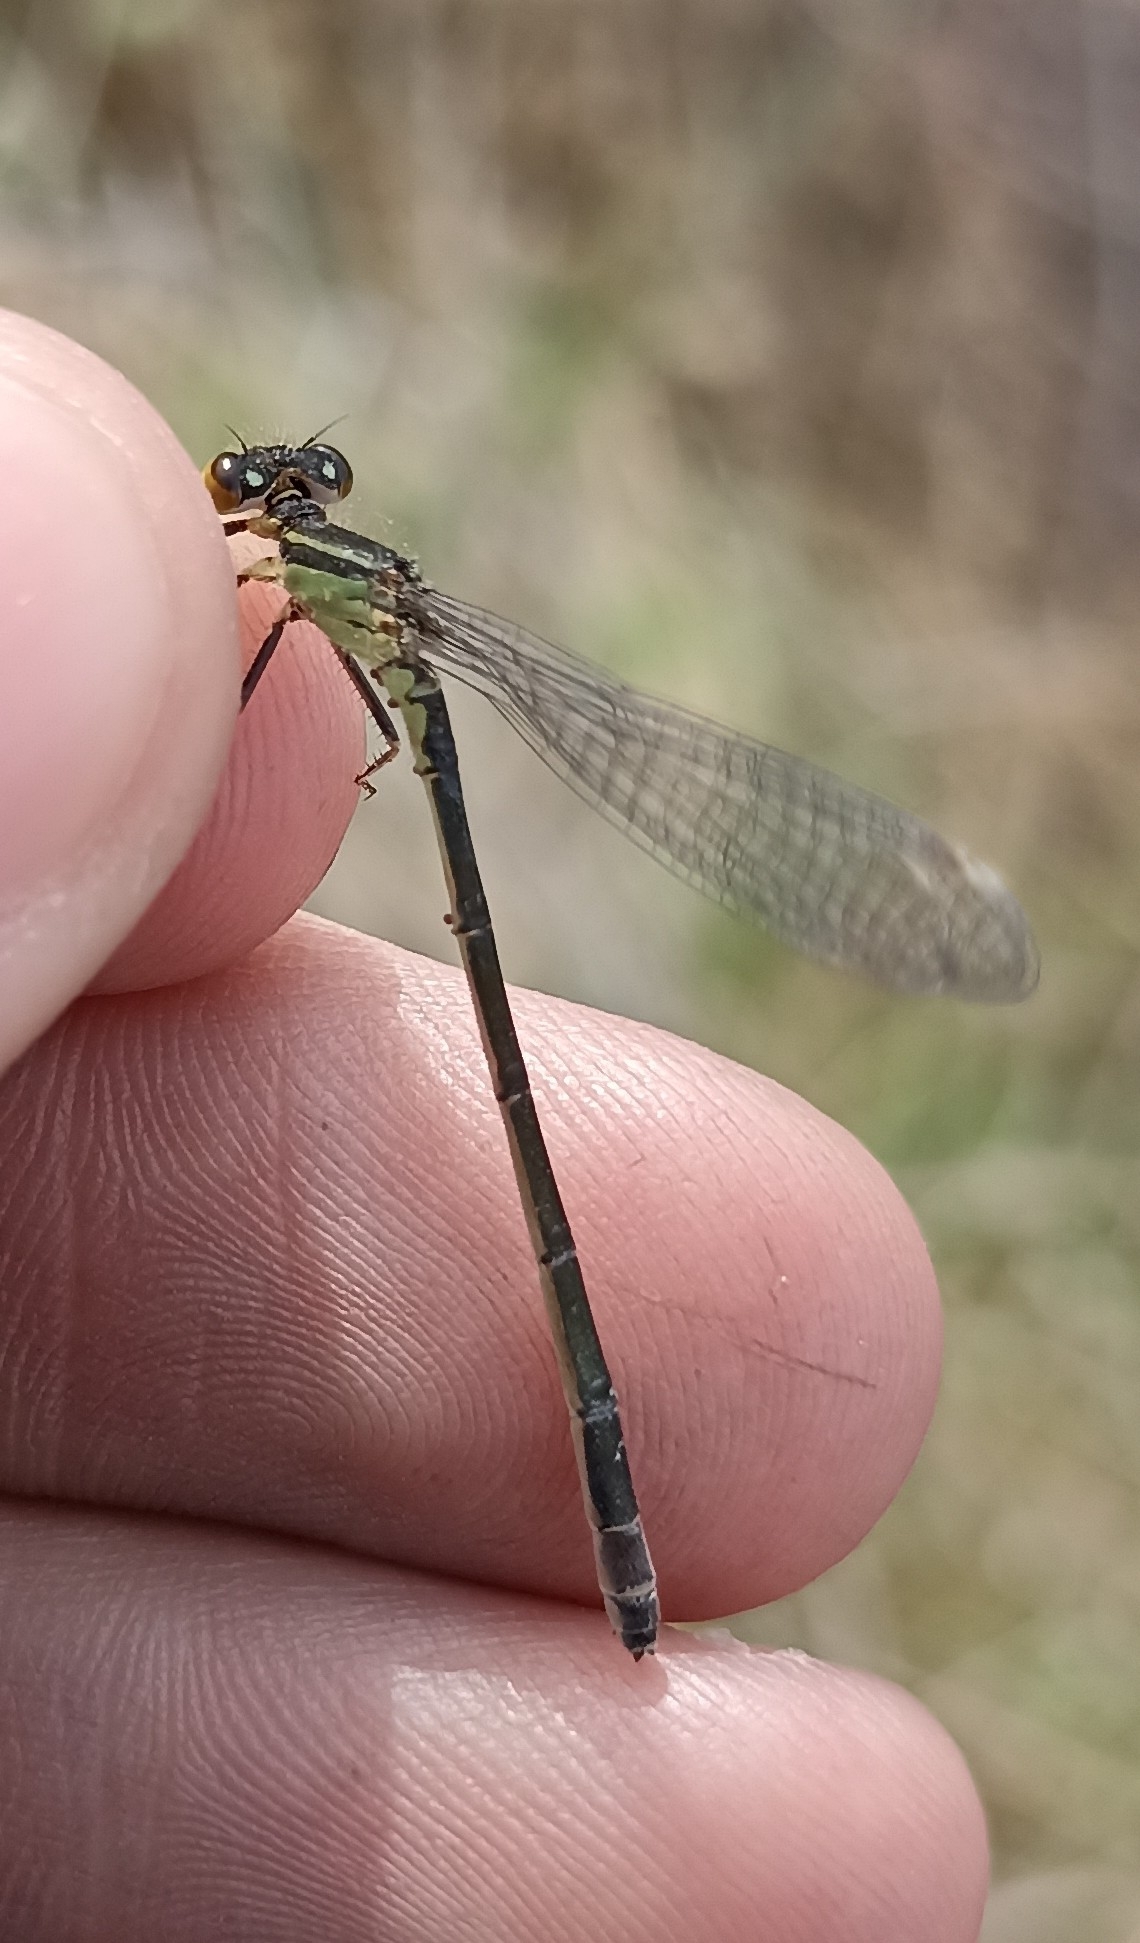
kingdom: Animalia
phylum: Arthropoda
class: Insecta
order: Odonata
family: Coenagrionidae
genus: Ischnura
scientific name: Ischnura elegans
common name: Blue-tailed damselfly
